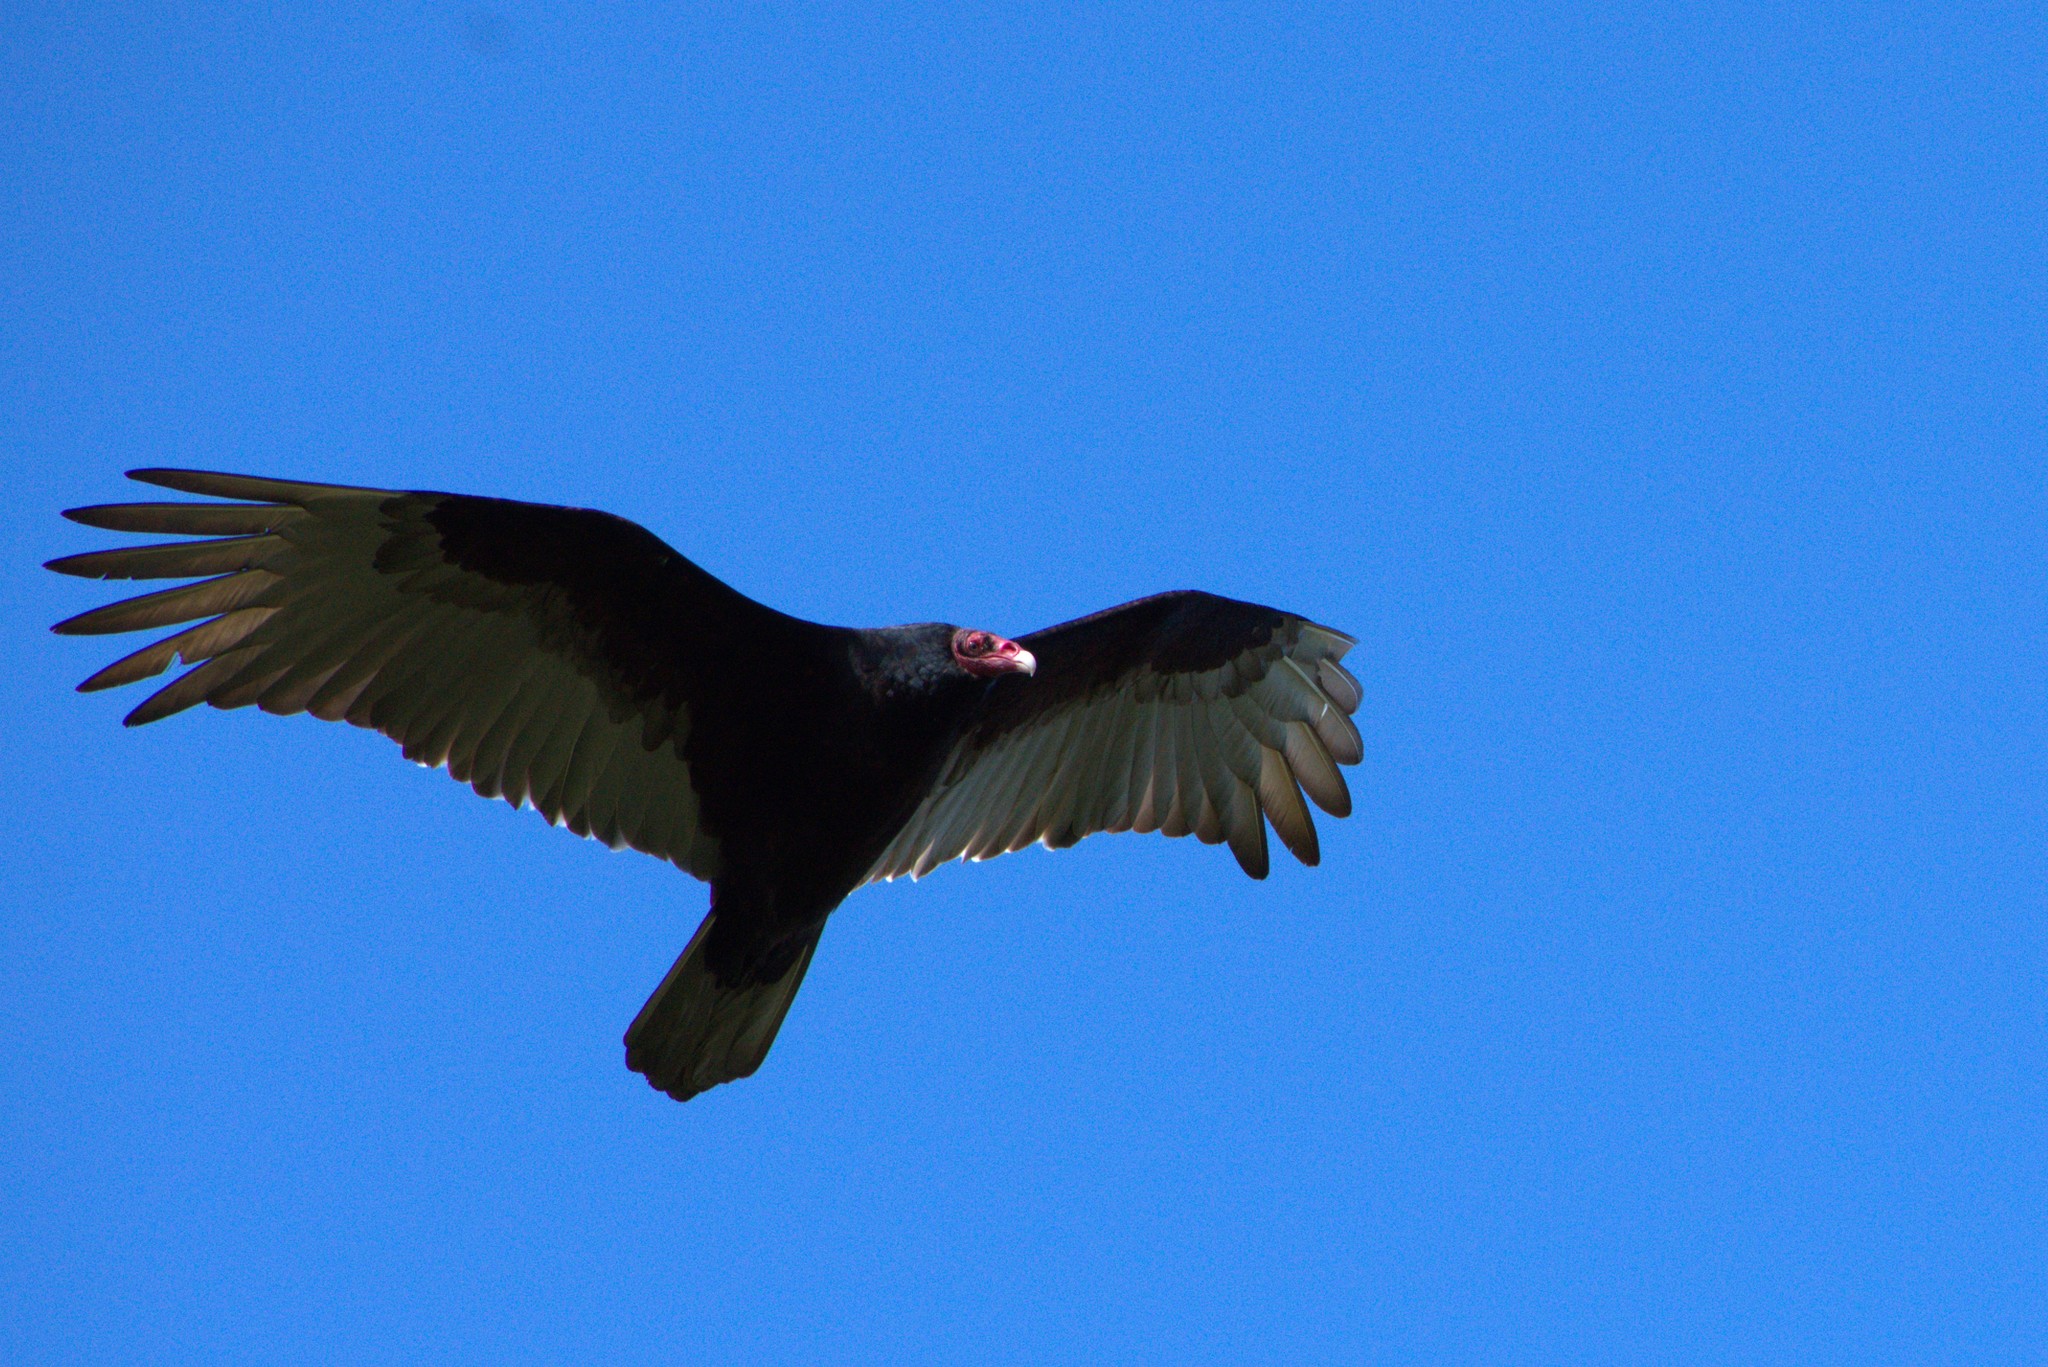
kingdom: Animalia
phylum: Chordata
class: Aves
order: Accipitriformes
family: Cathartidae
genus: Cathartes
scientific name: Cathartes aura
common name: Turkey vulture
